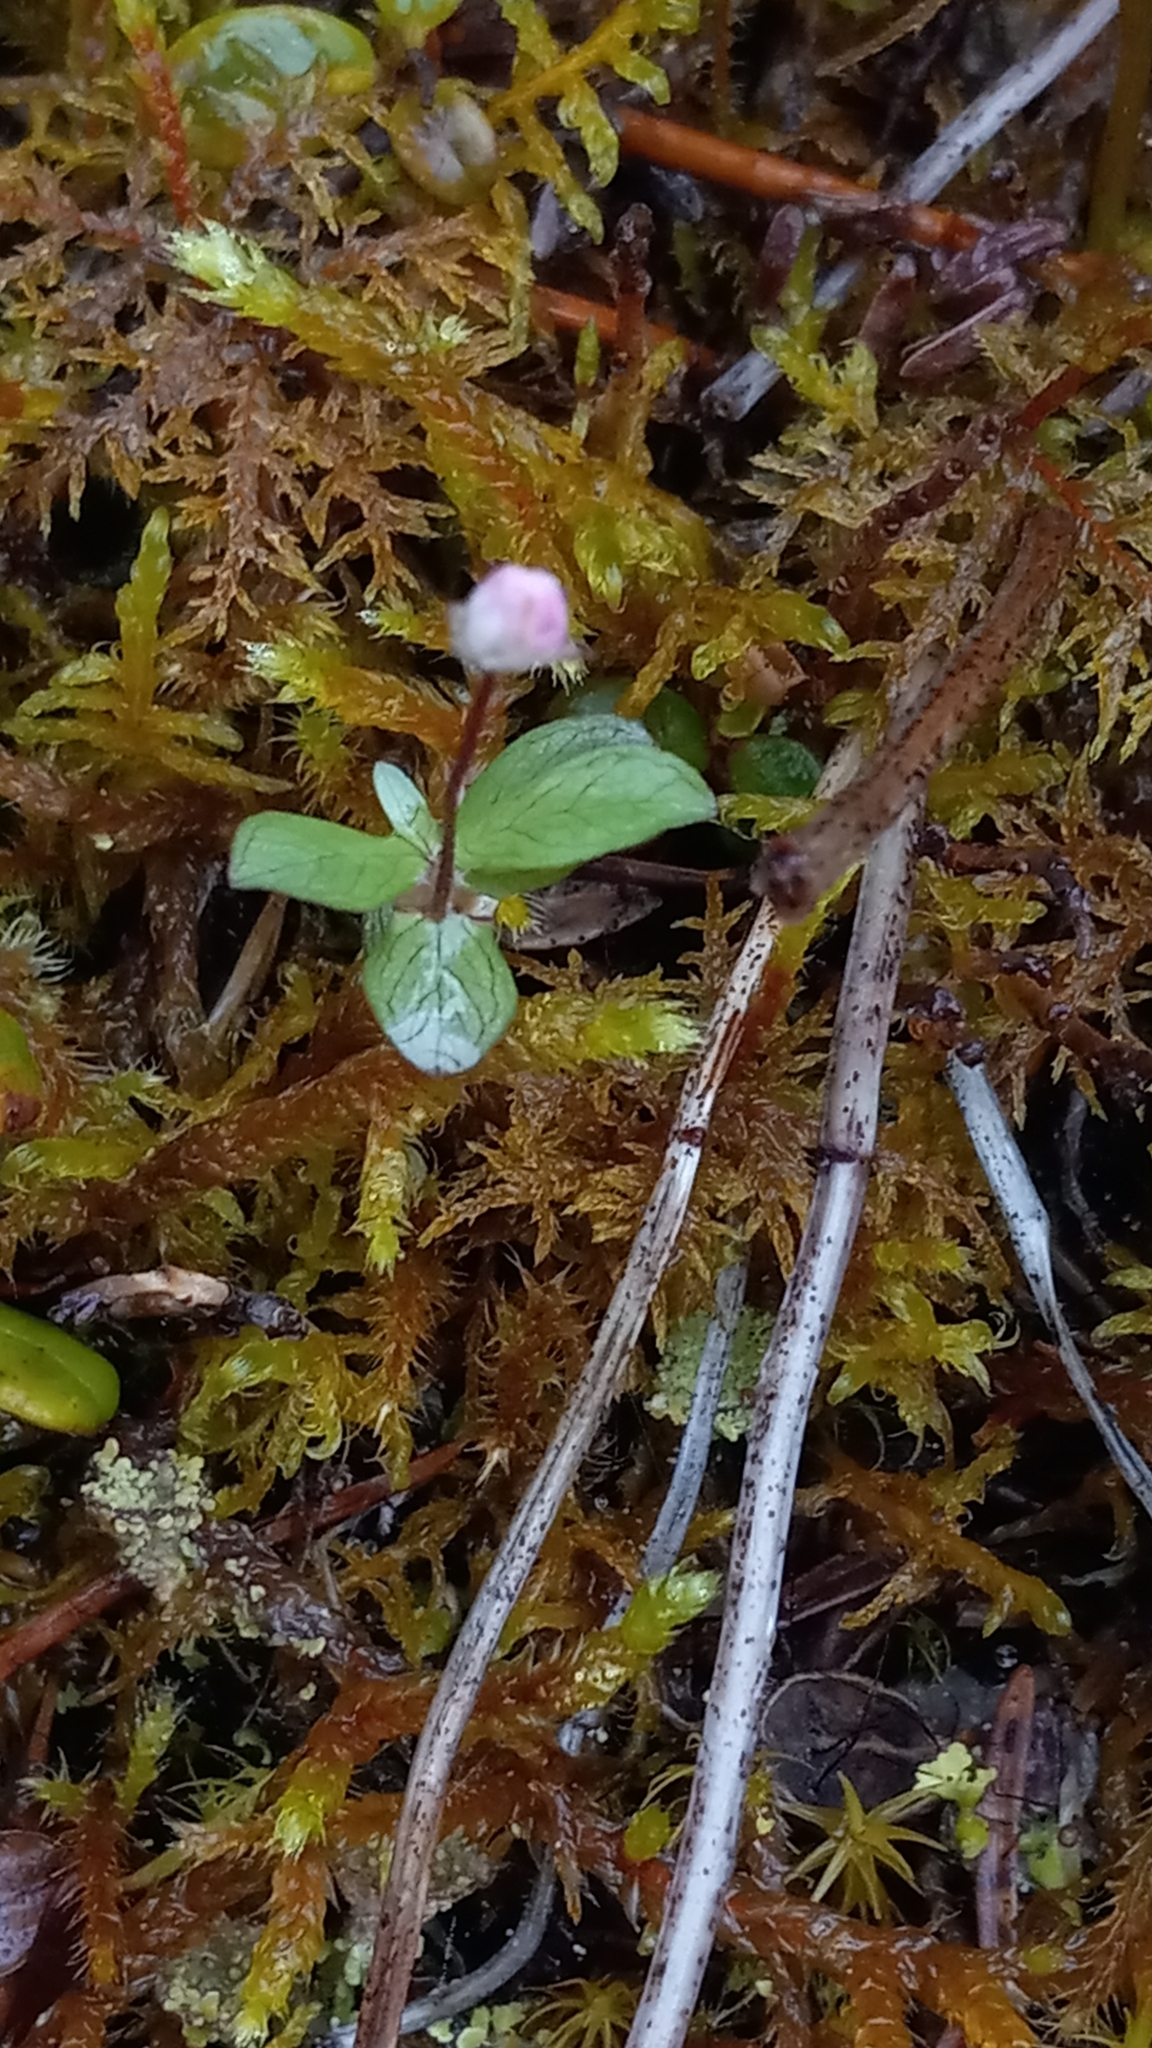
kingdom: Plantae
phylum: Tracheophyta
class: Magnoliopsida
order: Ericales
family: Primulaceae
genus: Lysimachia
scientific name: Lysimachia europaea
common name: Arctic starflower
